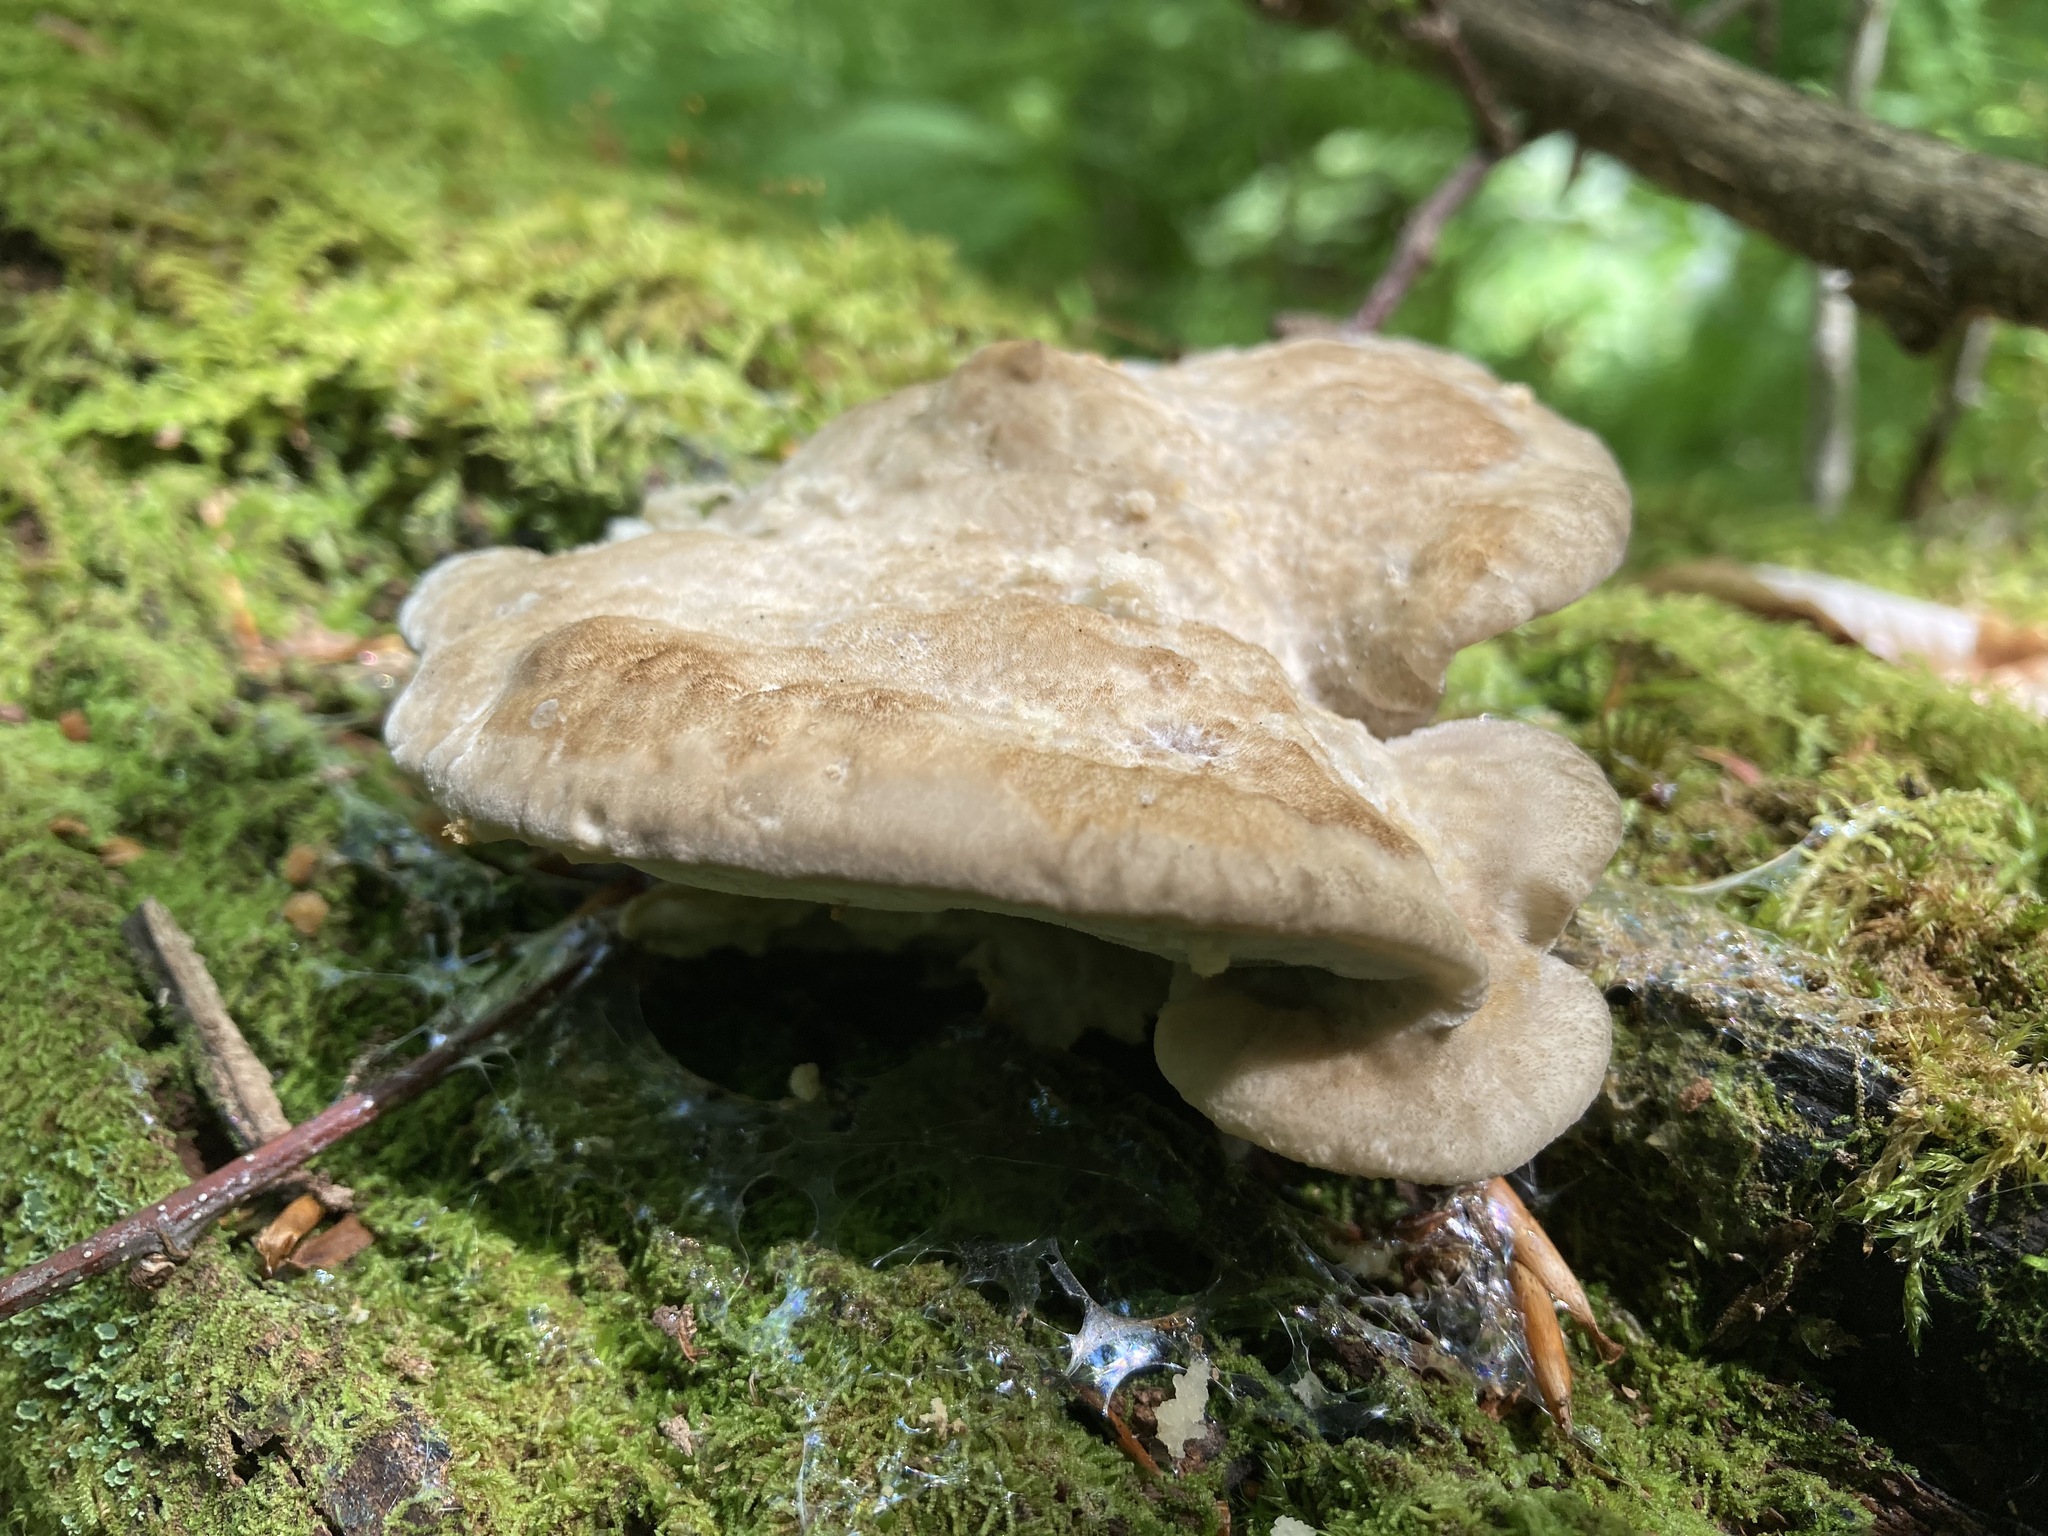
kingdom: Fungi
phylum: Basidiomycota
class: Agaricomycetes
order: Polyporales
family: Incrustoporiaceae
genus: Tyromyces
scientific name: Tyromyces fumidiceps
